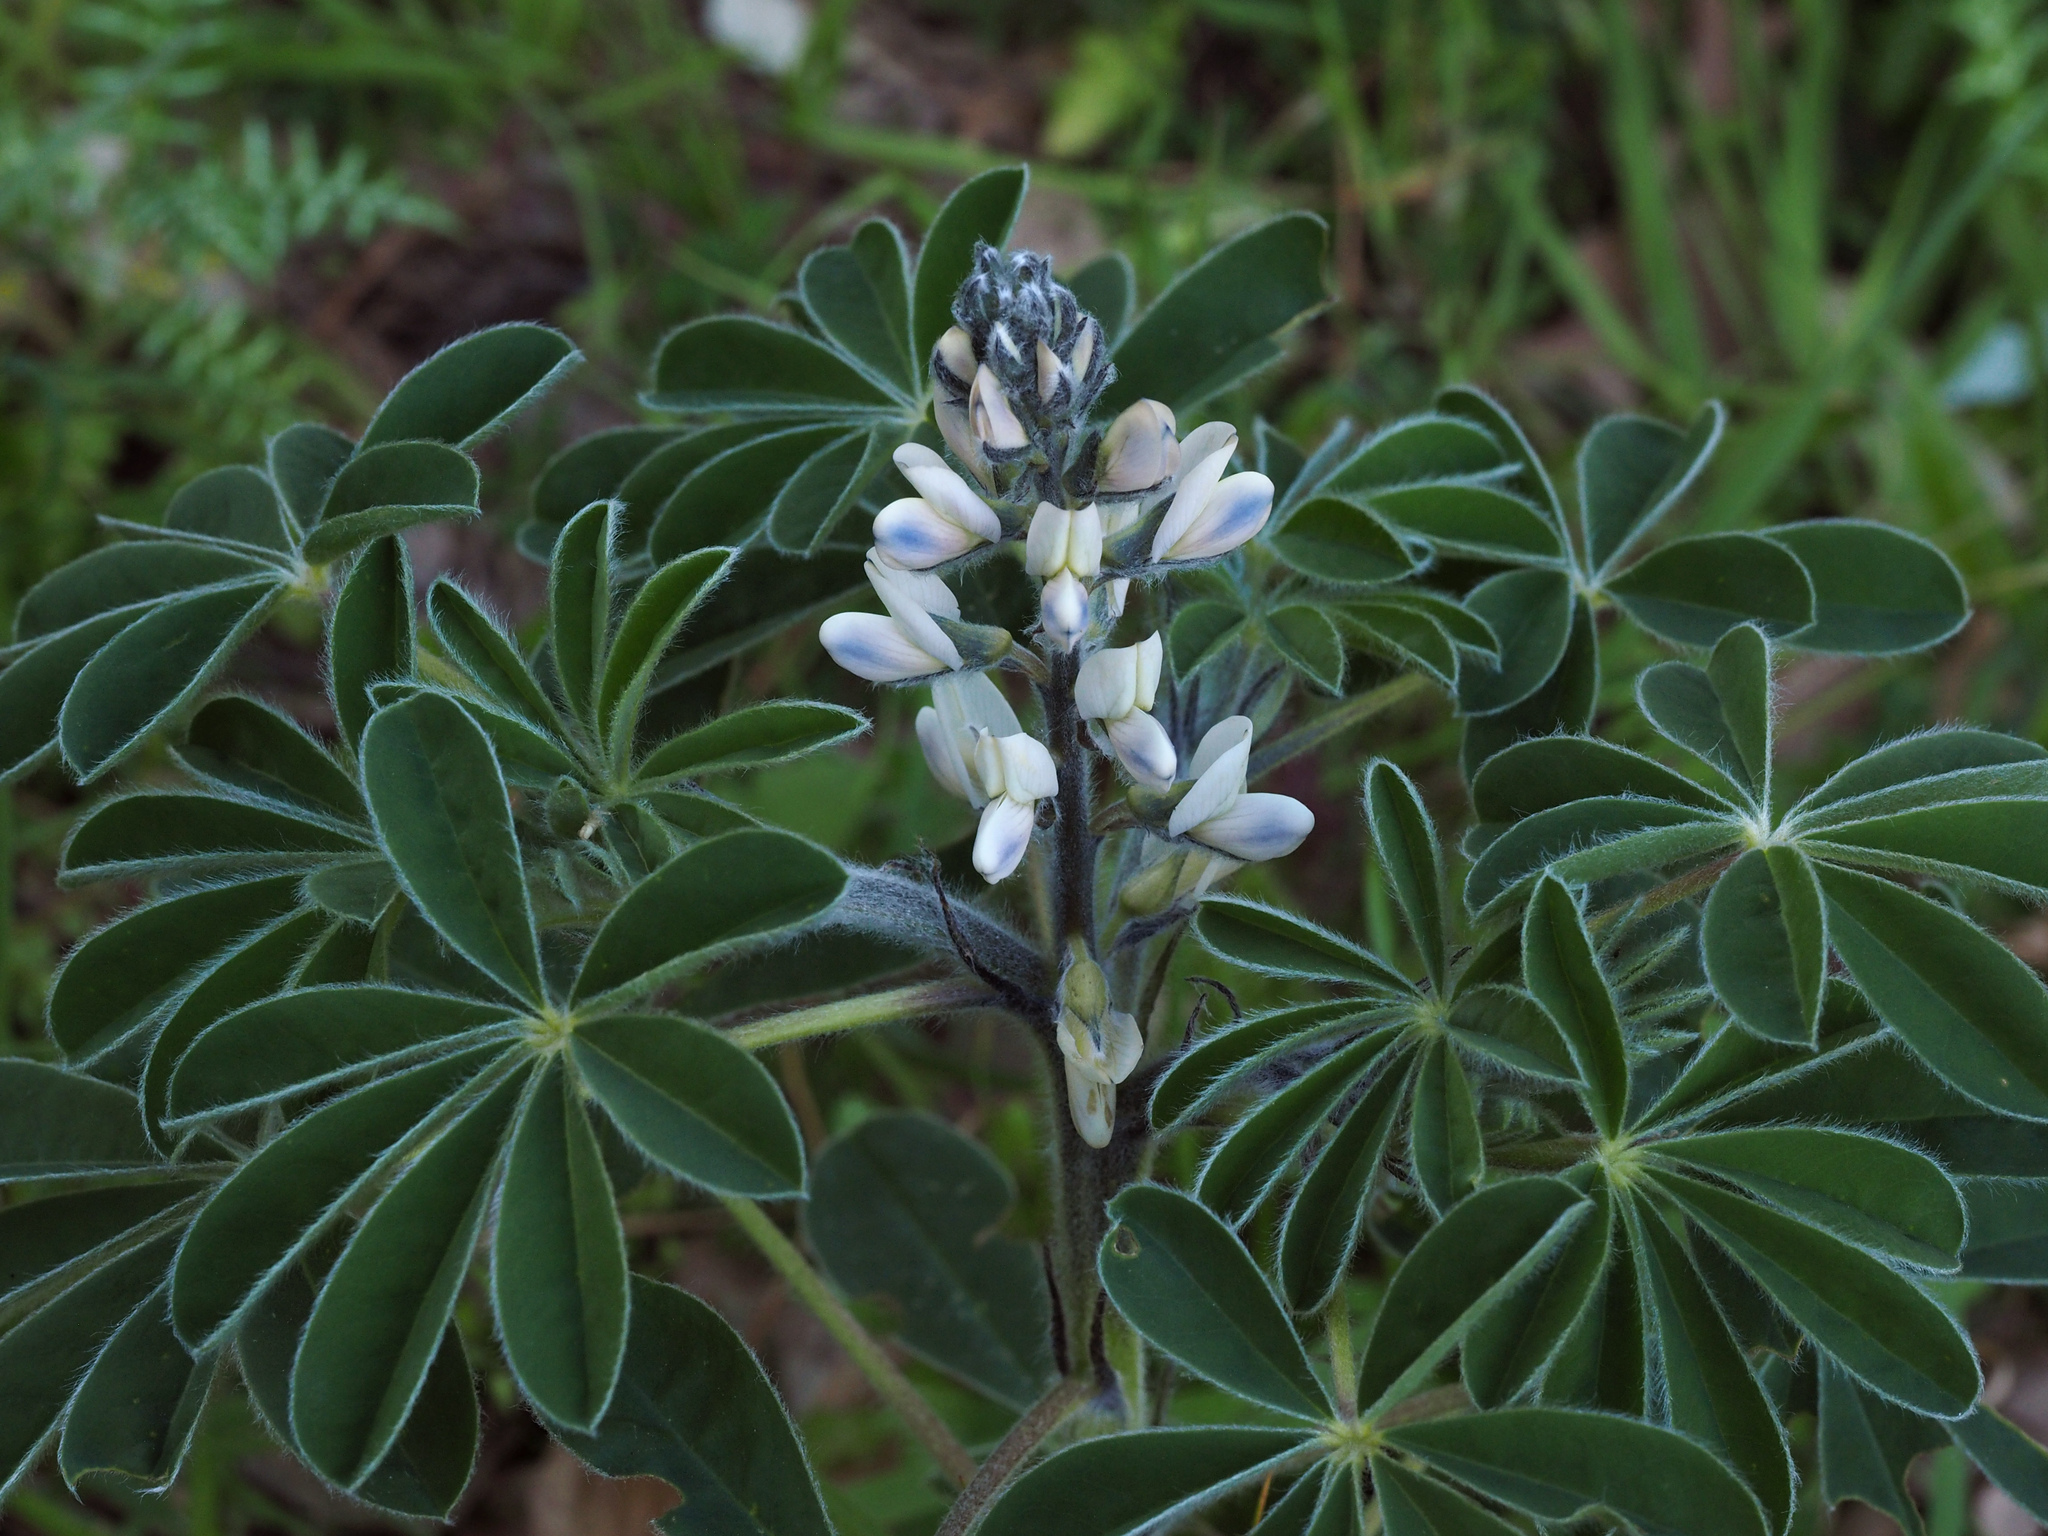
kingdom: Plantae
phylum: Tracheophyta
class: Magnoliopsida
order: Fabales
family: Fabaceae
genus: Lupinus
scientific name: Lupinus albus
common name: White lupin
